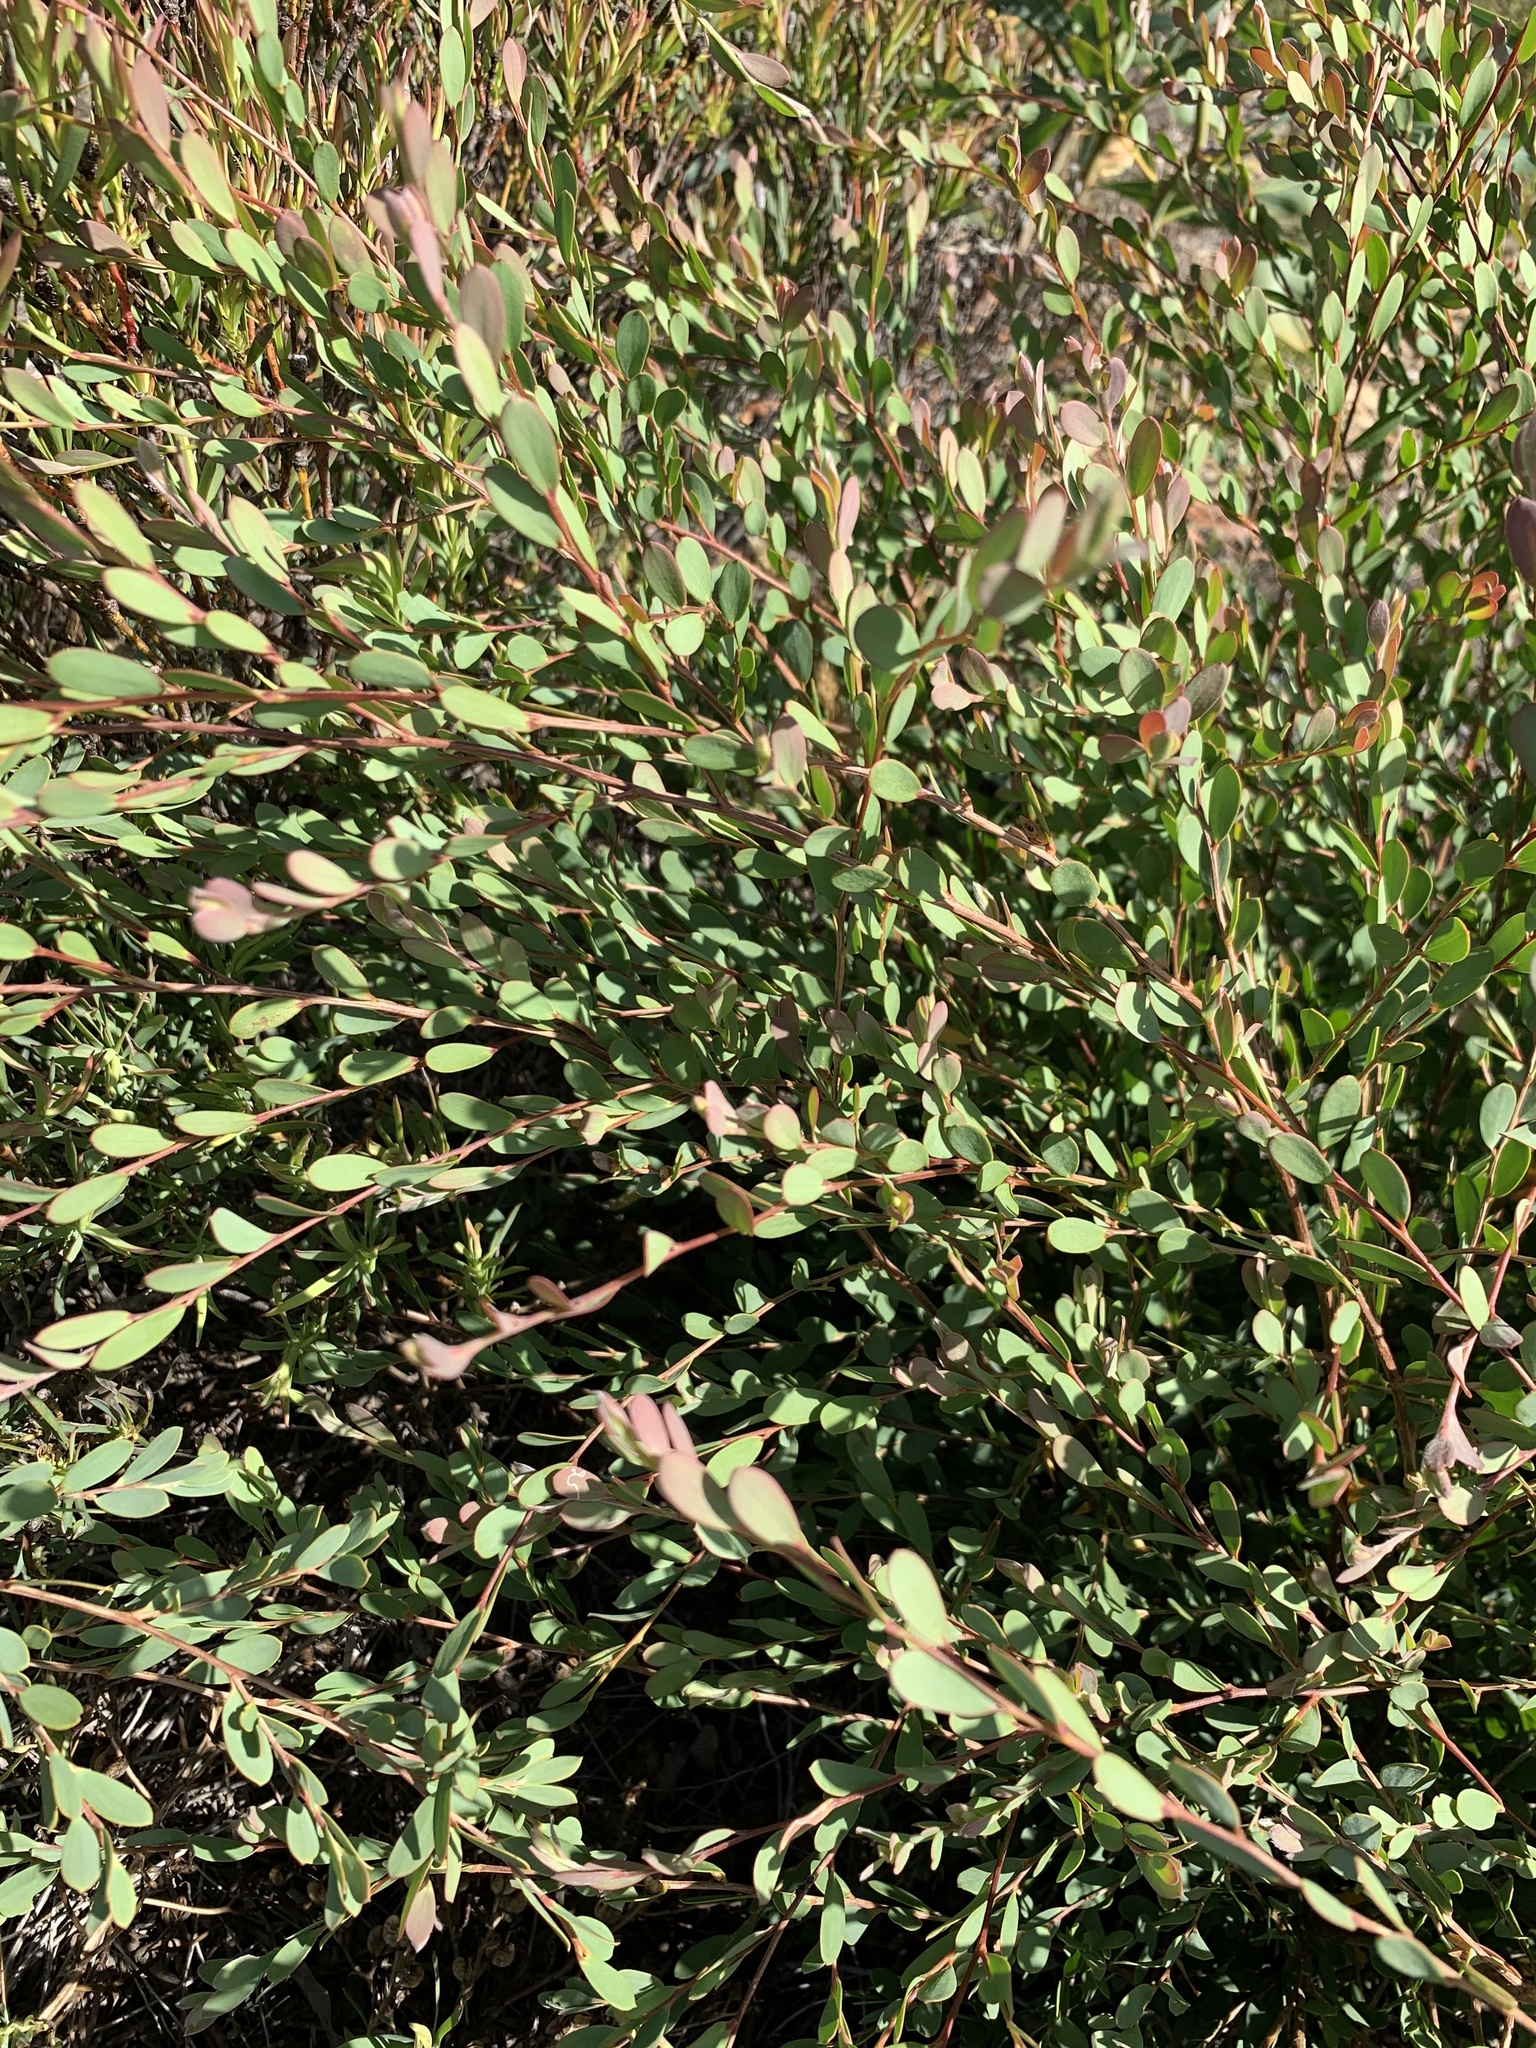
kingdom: Plantae
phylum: Tracheophyta
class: Magnoliopsida
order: Myrtales
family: Myrtaceae
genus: Leptospermum
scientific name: Leptospermum laevigatum
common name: Australian teatree
